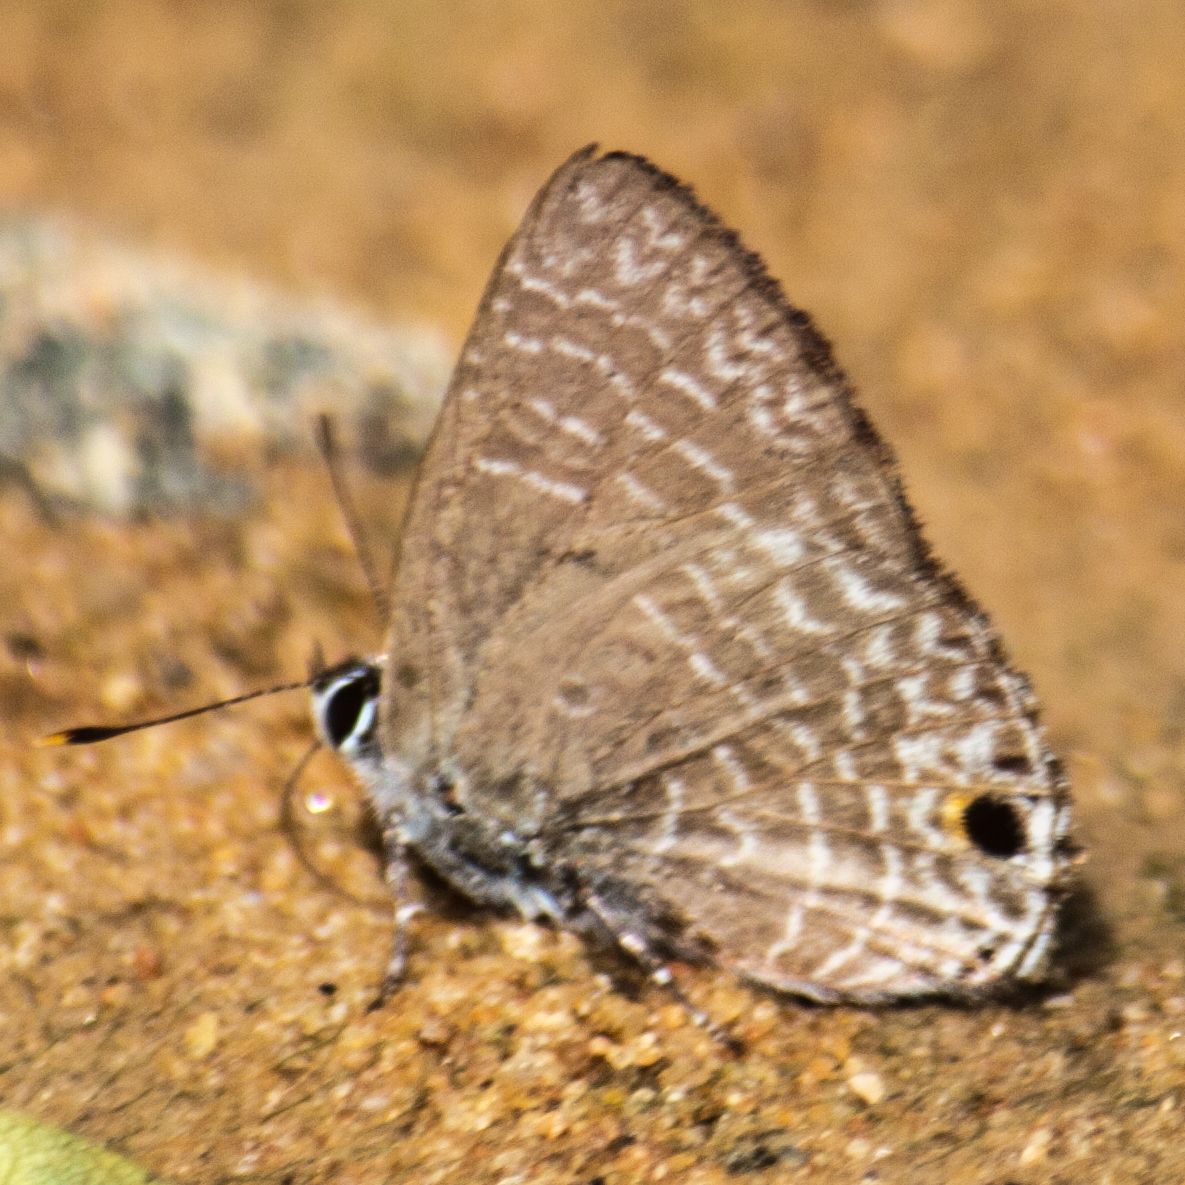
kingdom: Animalia
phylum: Arthropoda
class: Insecta
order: Lepidoptera
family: Lycaenidae
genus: Anthene
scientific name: Anthene lycaenina
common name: Pointed ciliate blue
